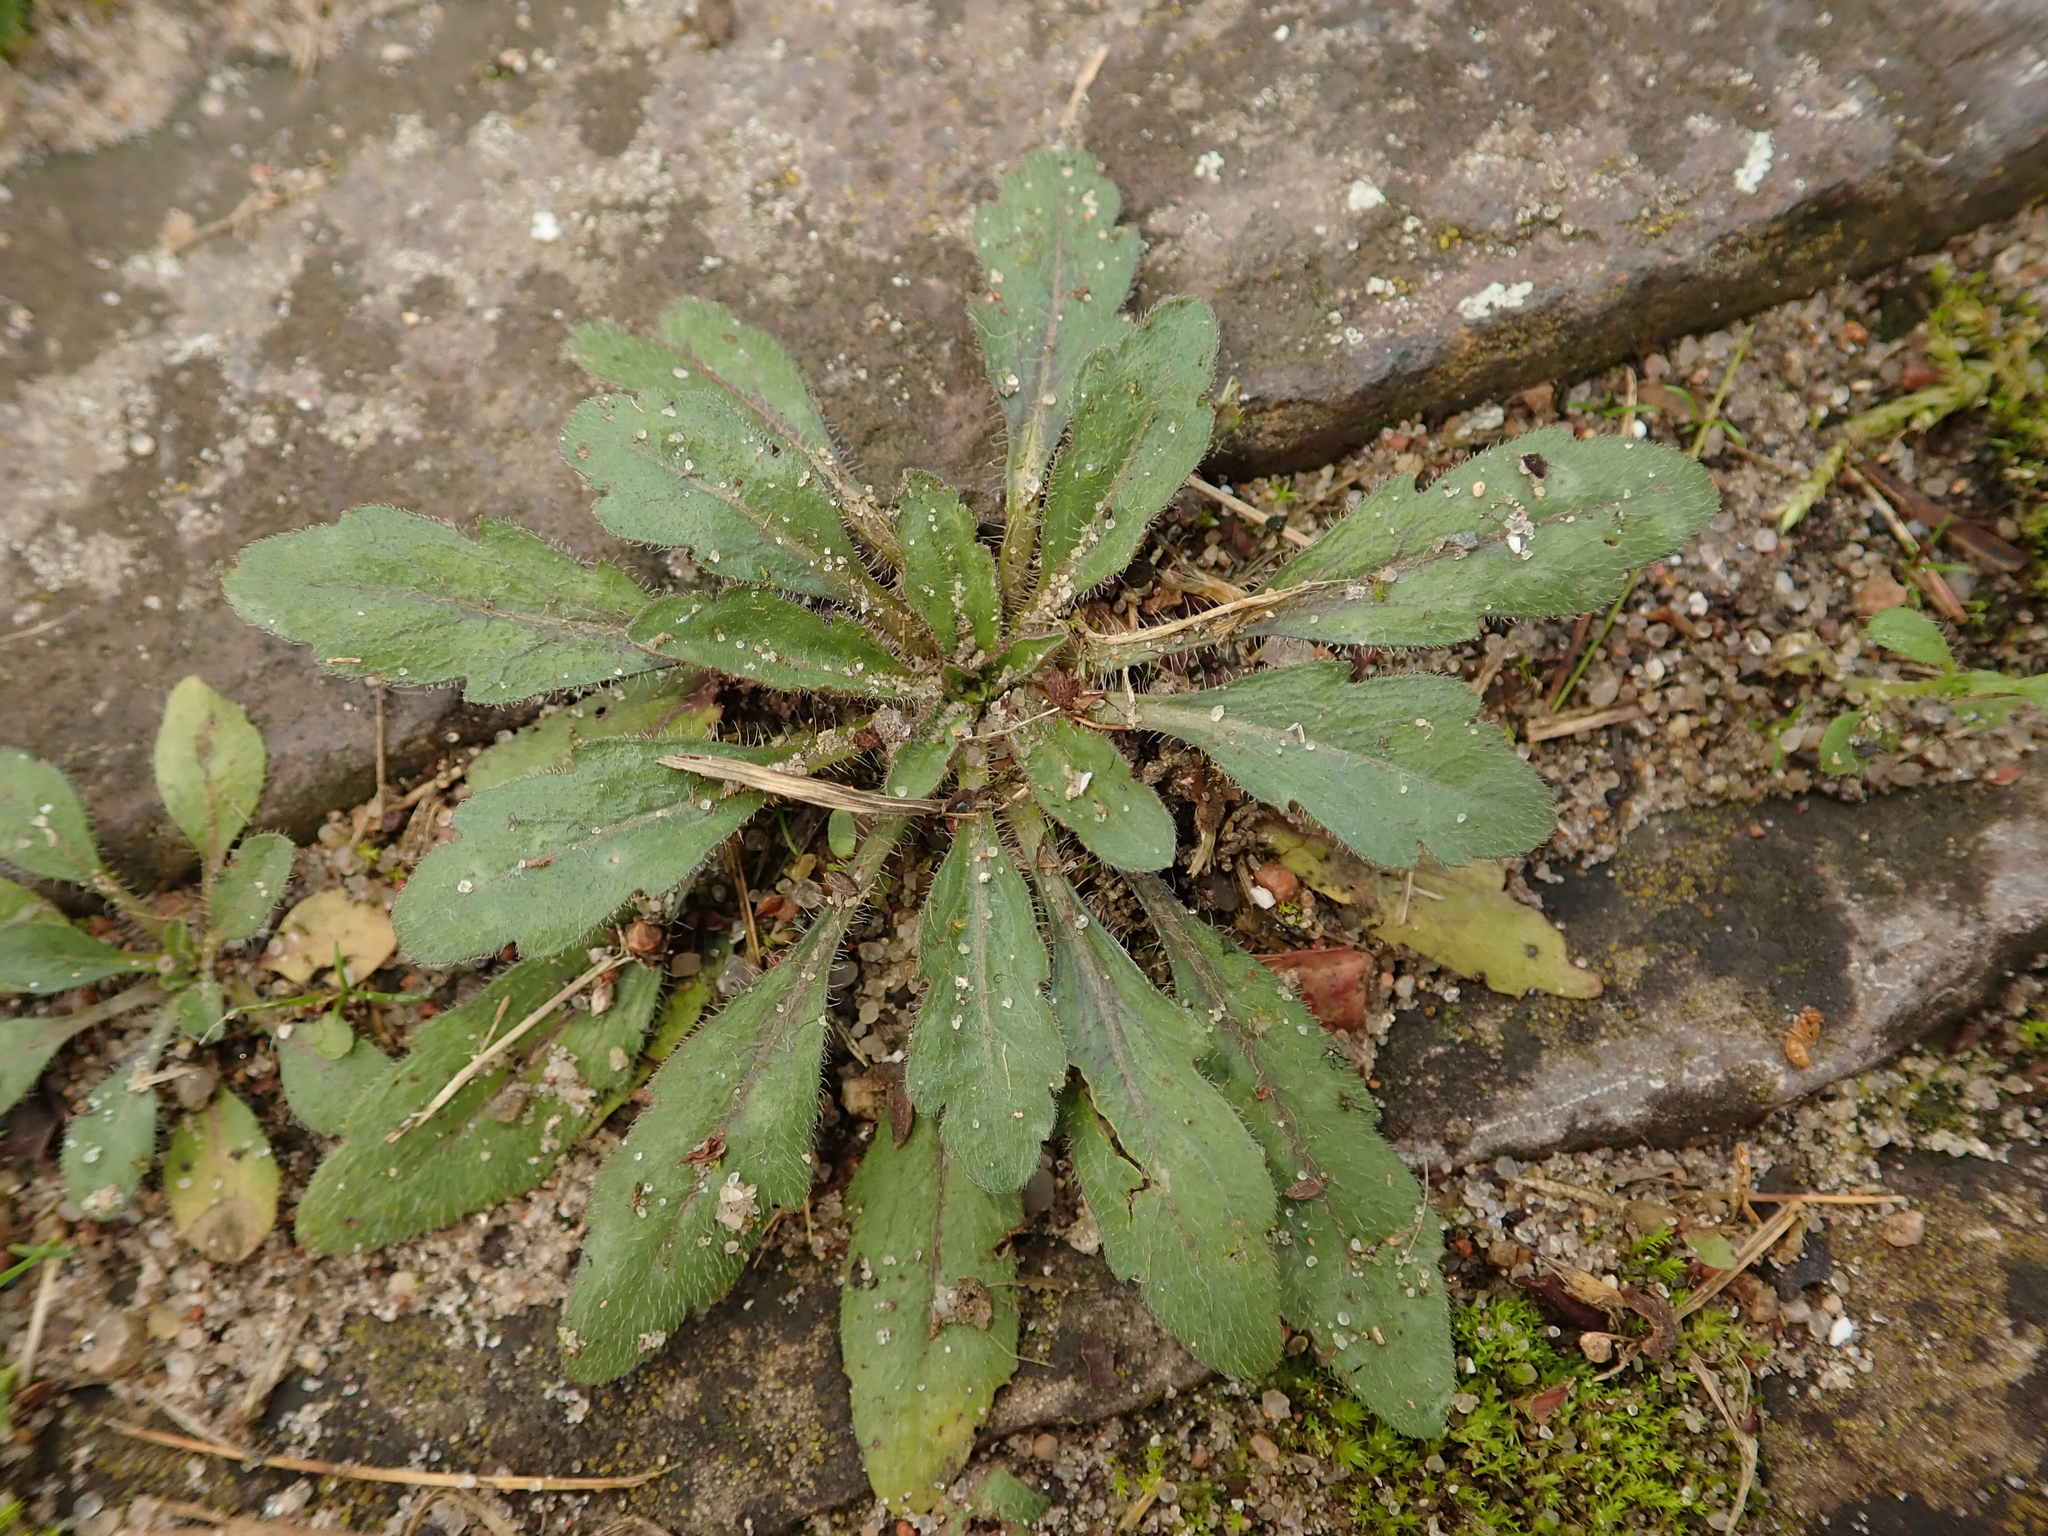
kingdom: Plantae
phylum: Tracheophyta
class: Magnoliopsida
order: Asterales
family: Asteraceae
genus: Erigeron
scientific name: Erigeron canadensis
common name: Canadian fleabane
